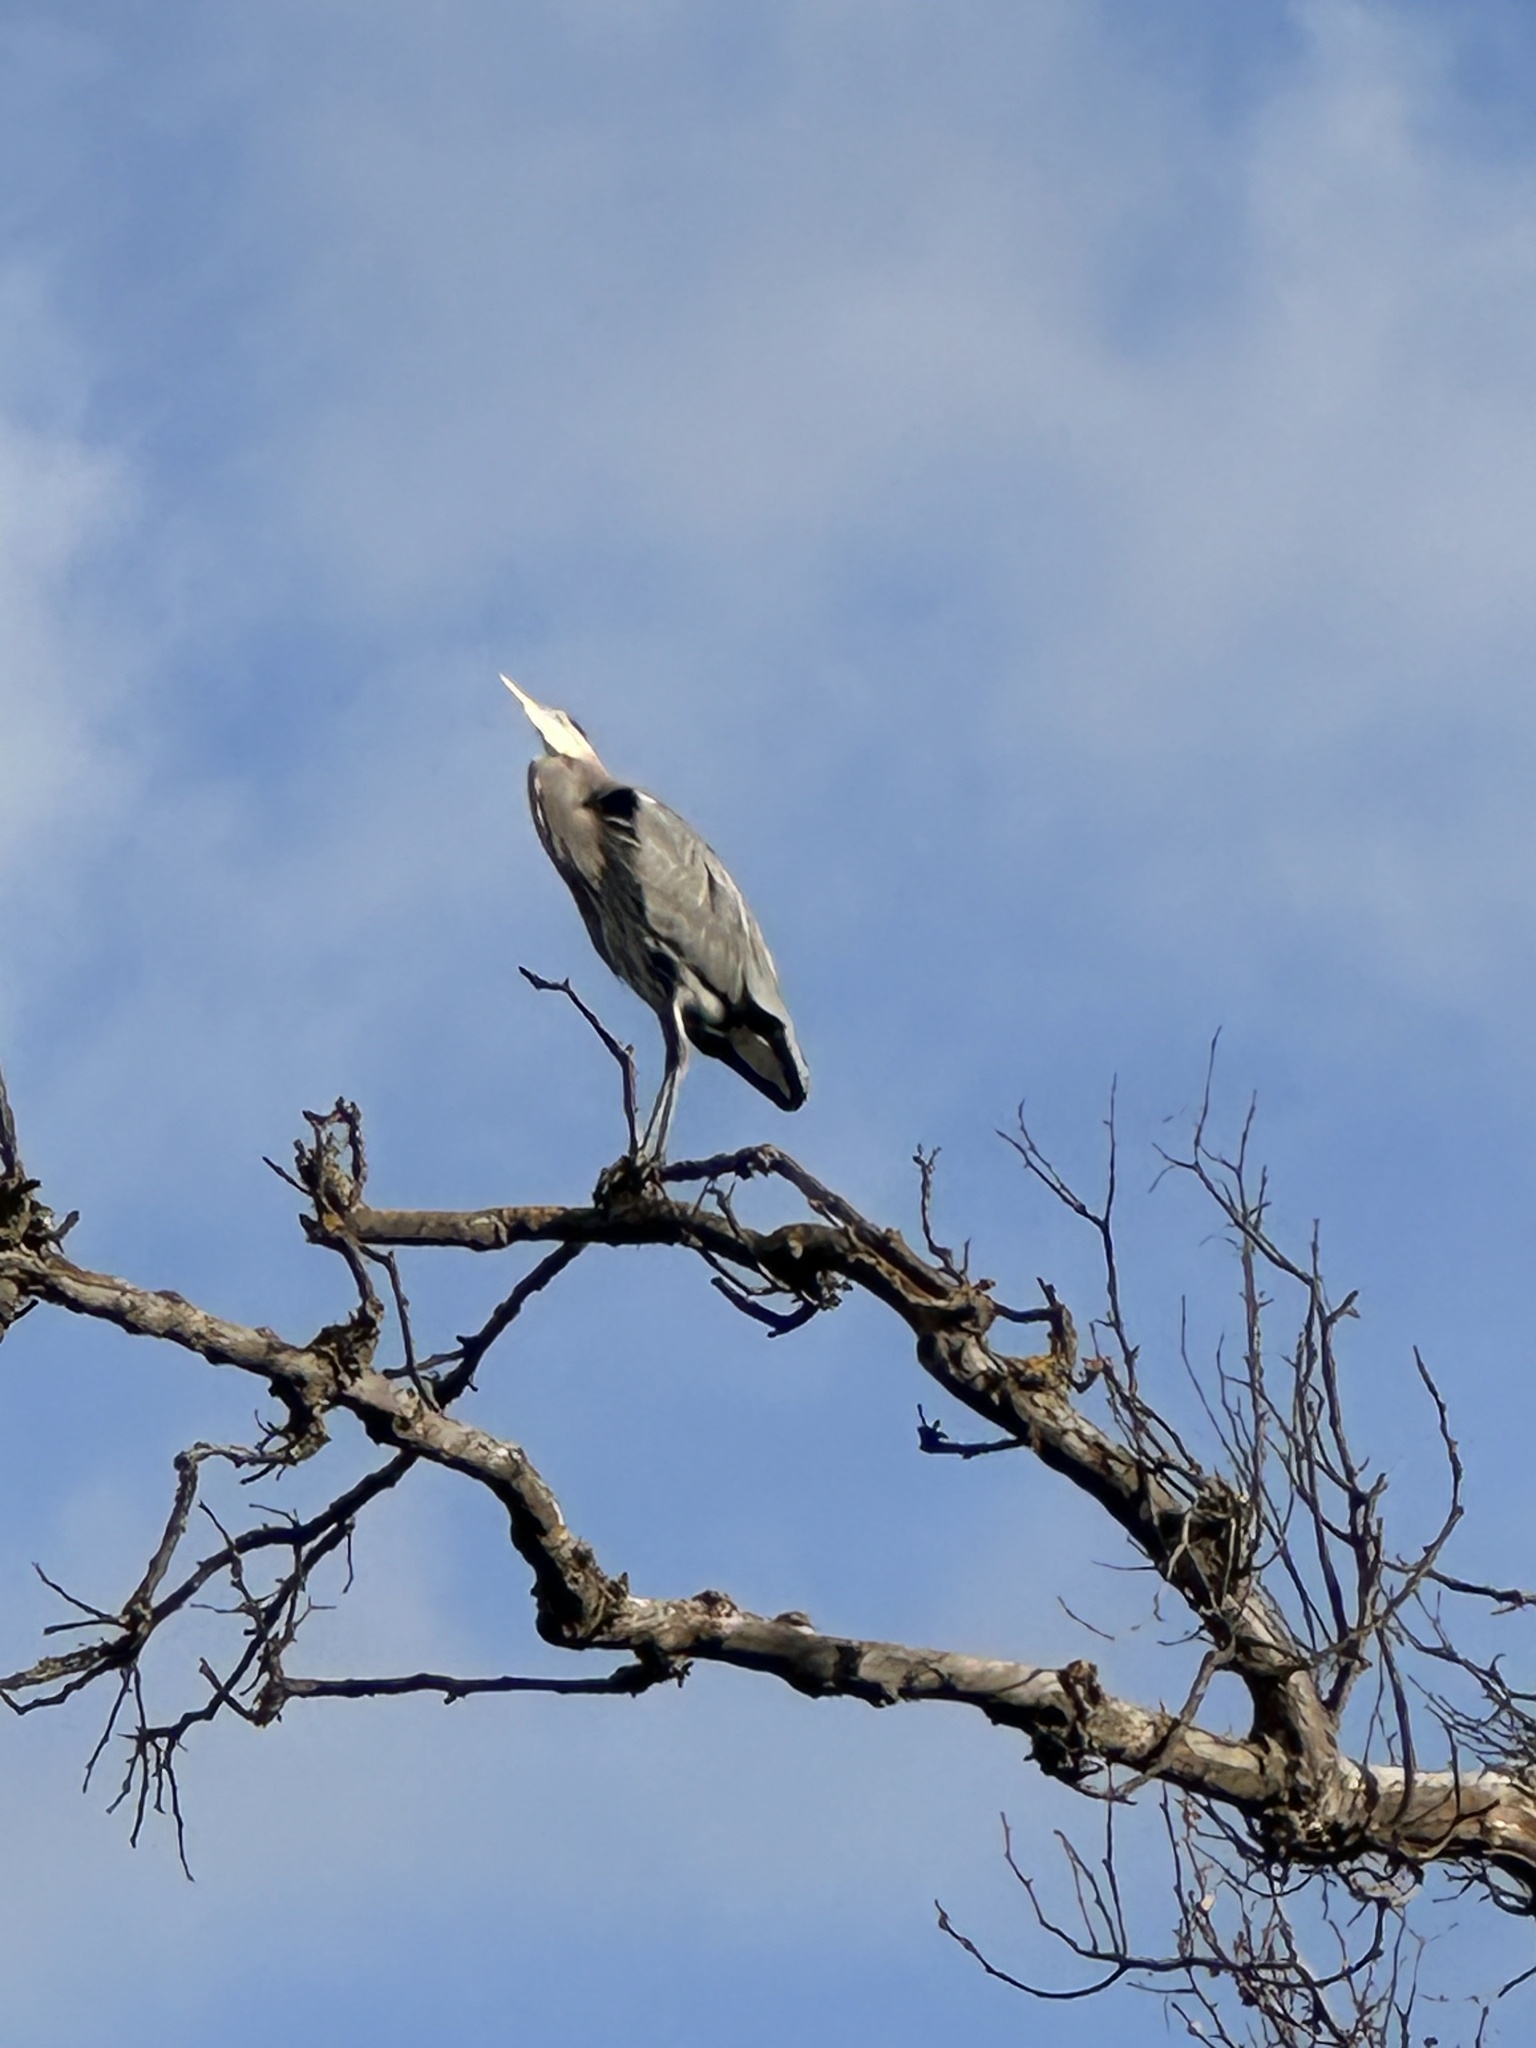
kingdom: Animalia
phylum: Chordata
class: Aves
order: Pelecaniformes
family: Ardeidae
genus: Ardea
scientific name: Ardea herodias
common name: Great blue heron
